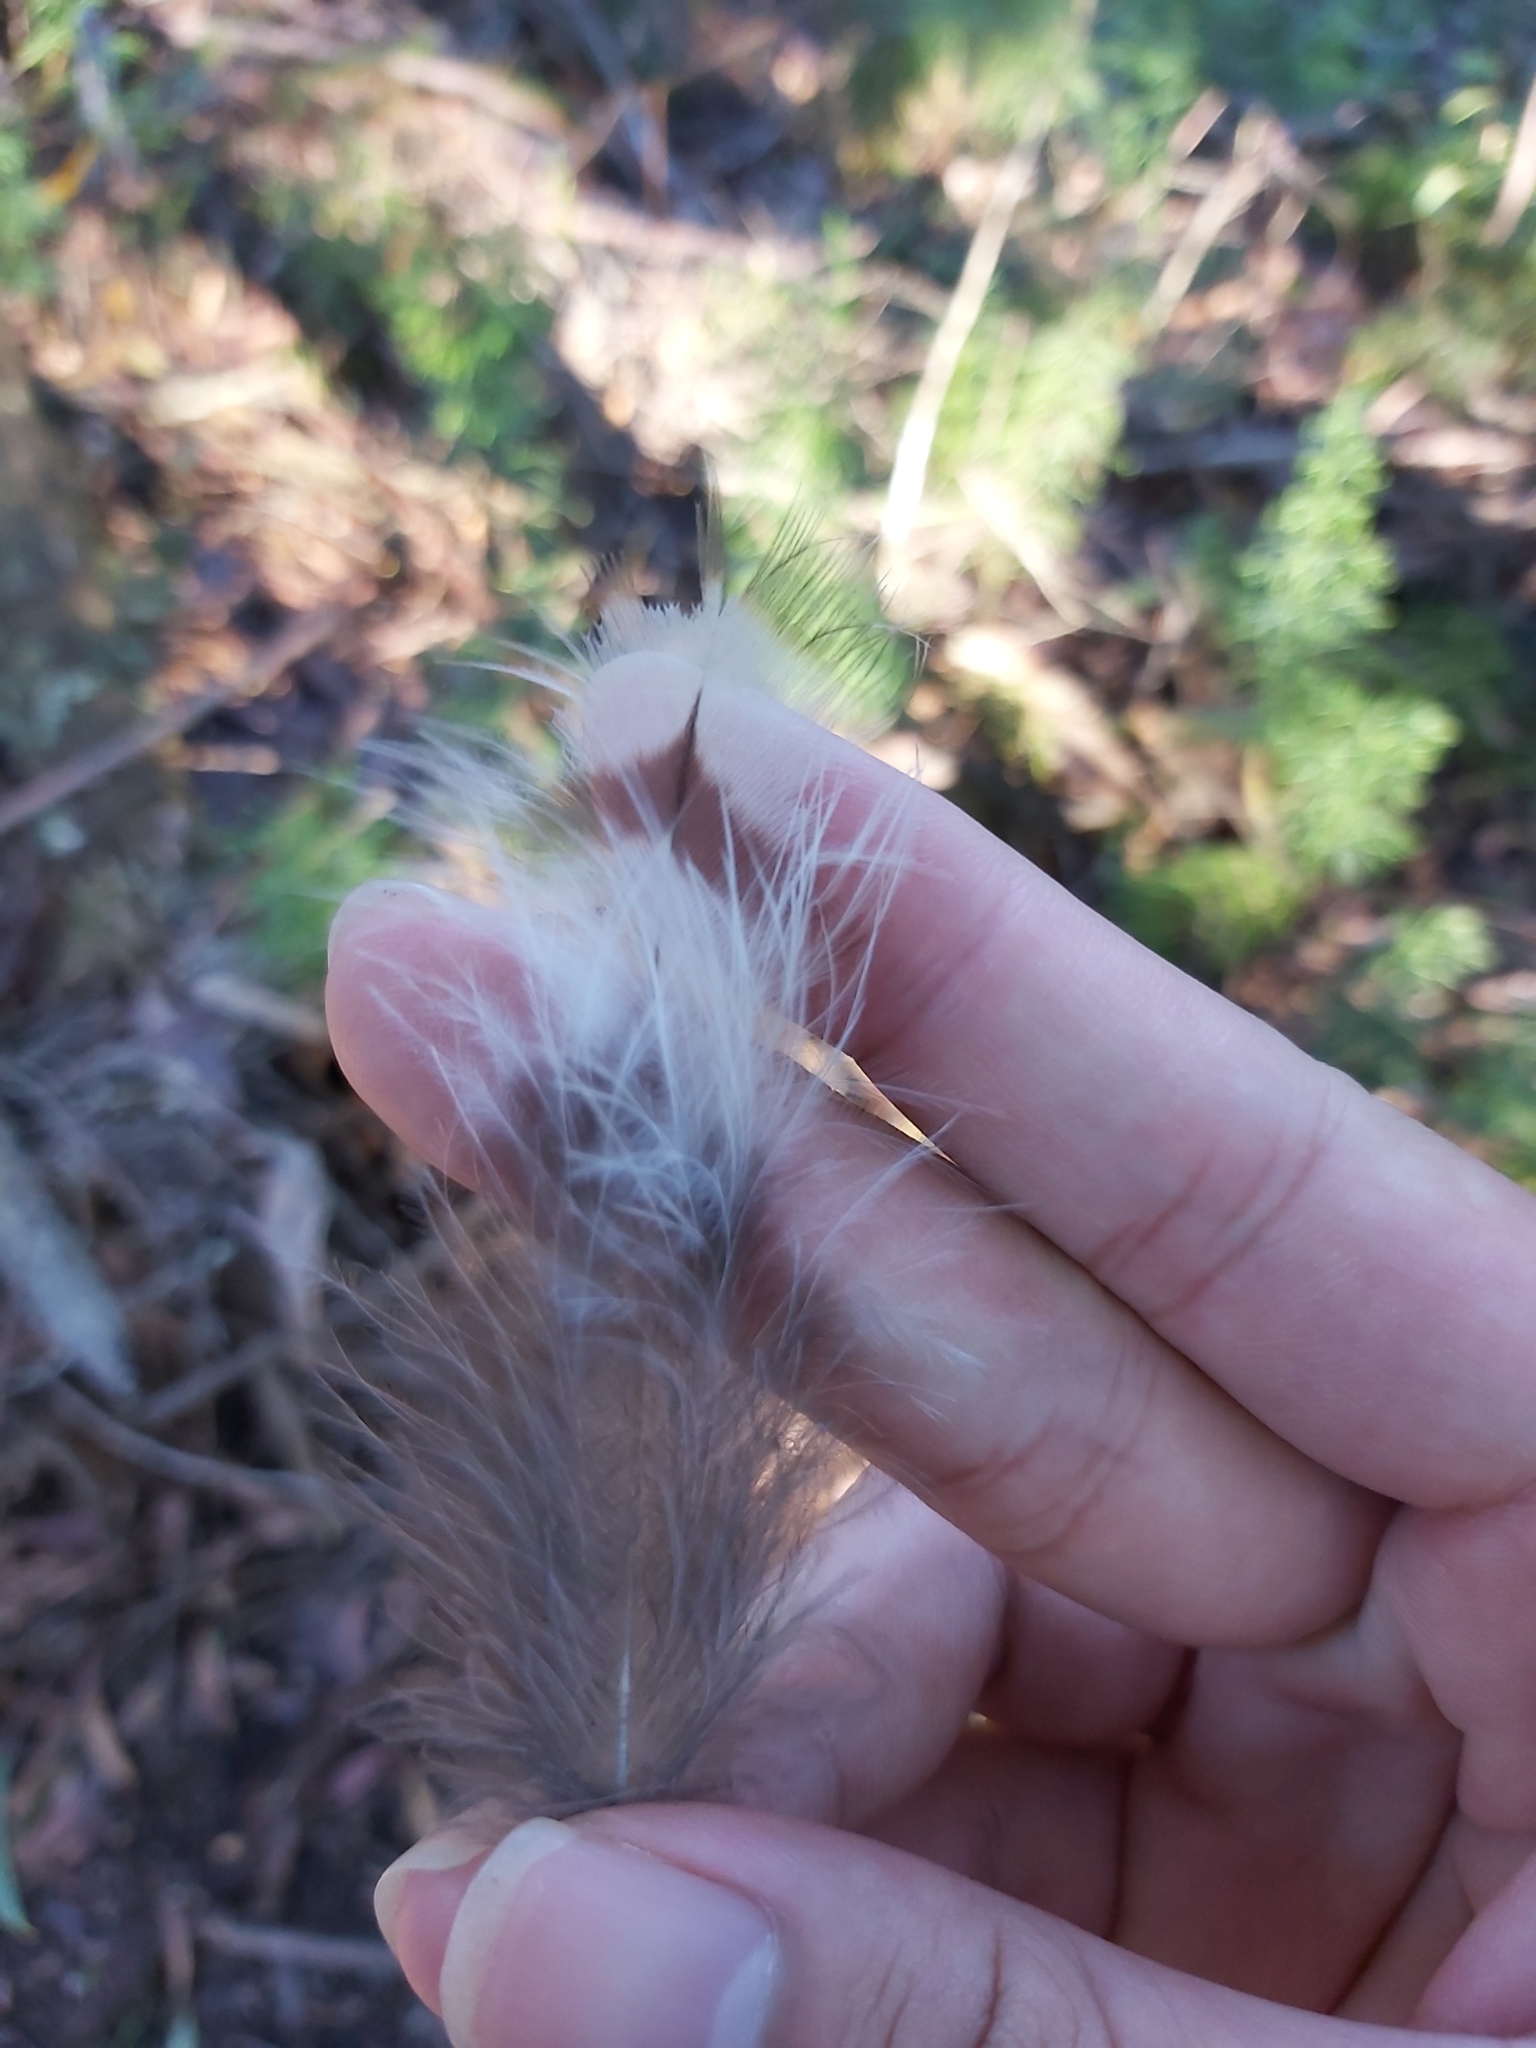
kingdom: Animalia
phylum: Chordata
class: Aves
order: Strigiformes
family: Strigidae
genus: Ninox
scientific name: Ninox strenua
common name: Powerful owl
